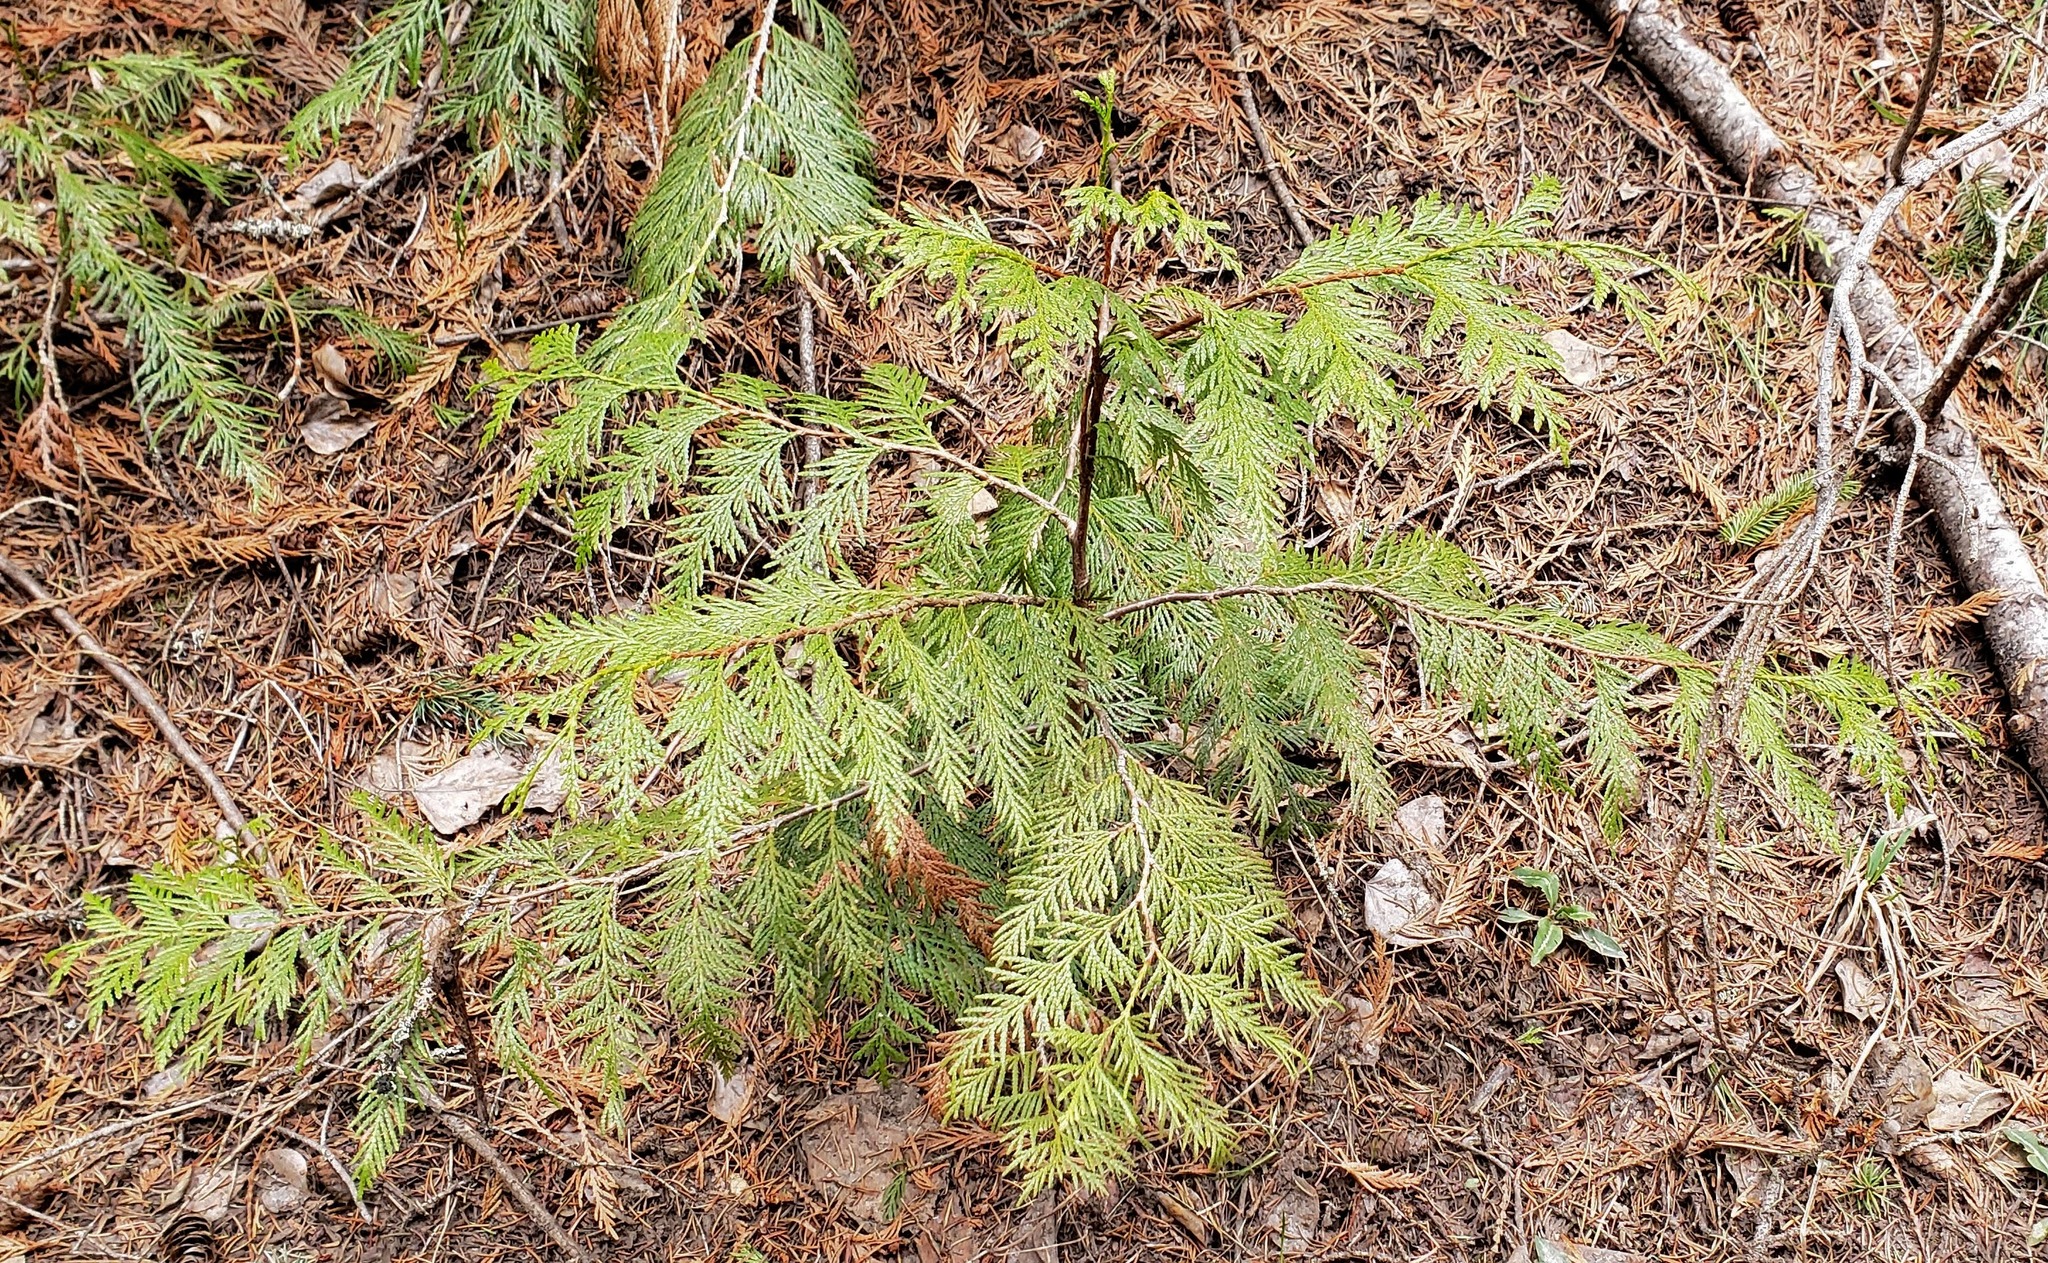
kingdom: Plantae
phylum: Tracheophyta
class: Pinopsida
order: Pinales
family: Cupressaceae
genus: Thuja
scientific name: Thuja plicata
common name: Western red-cedar
